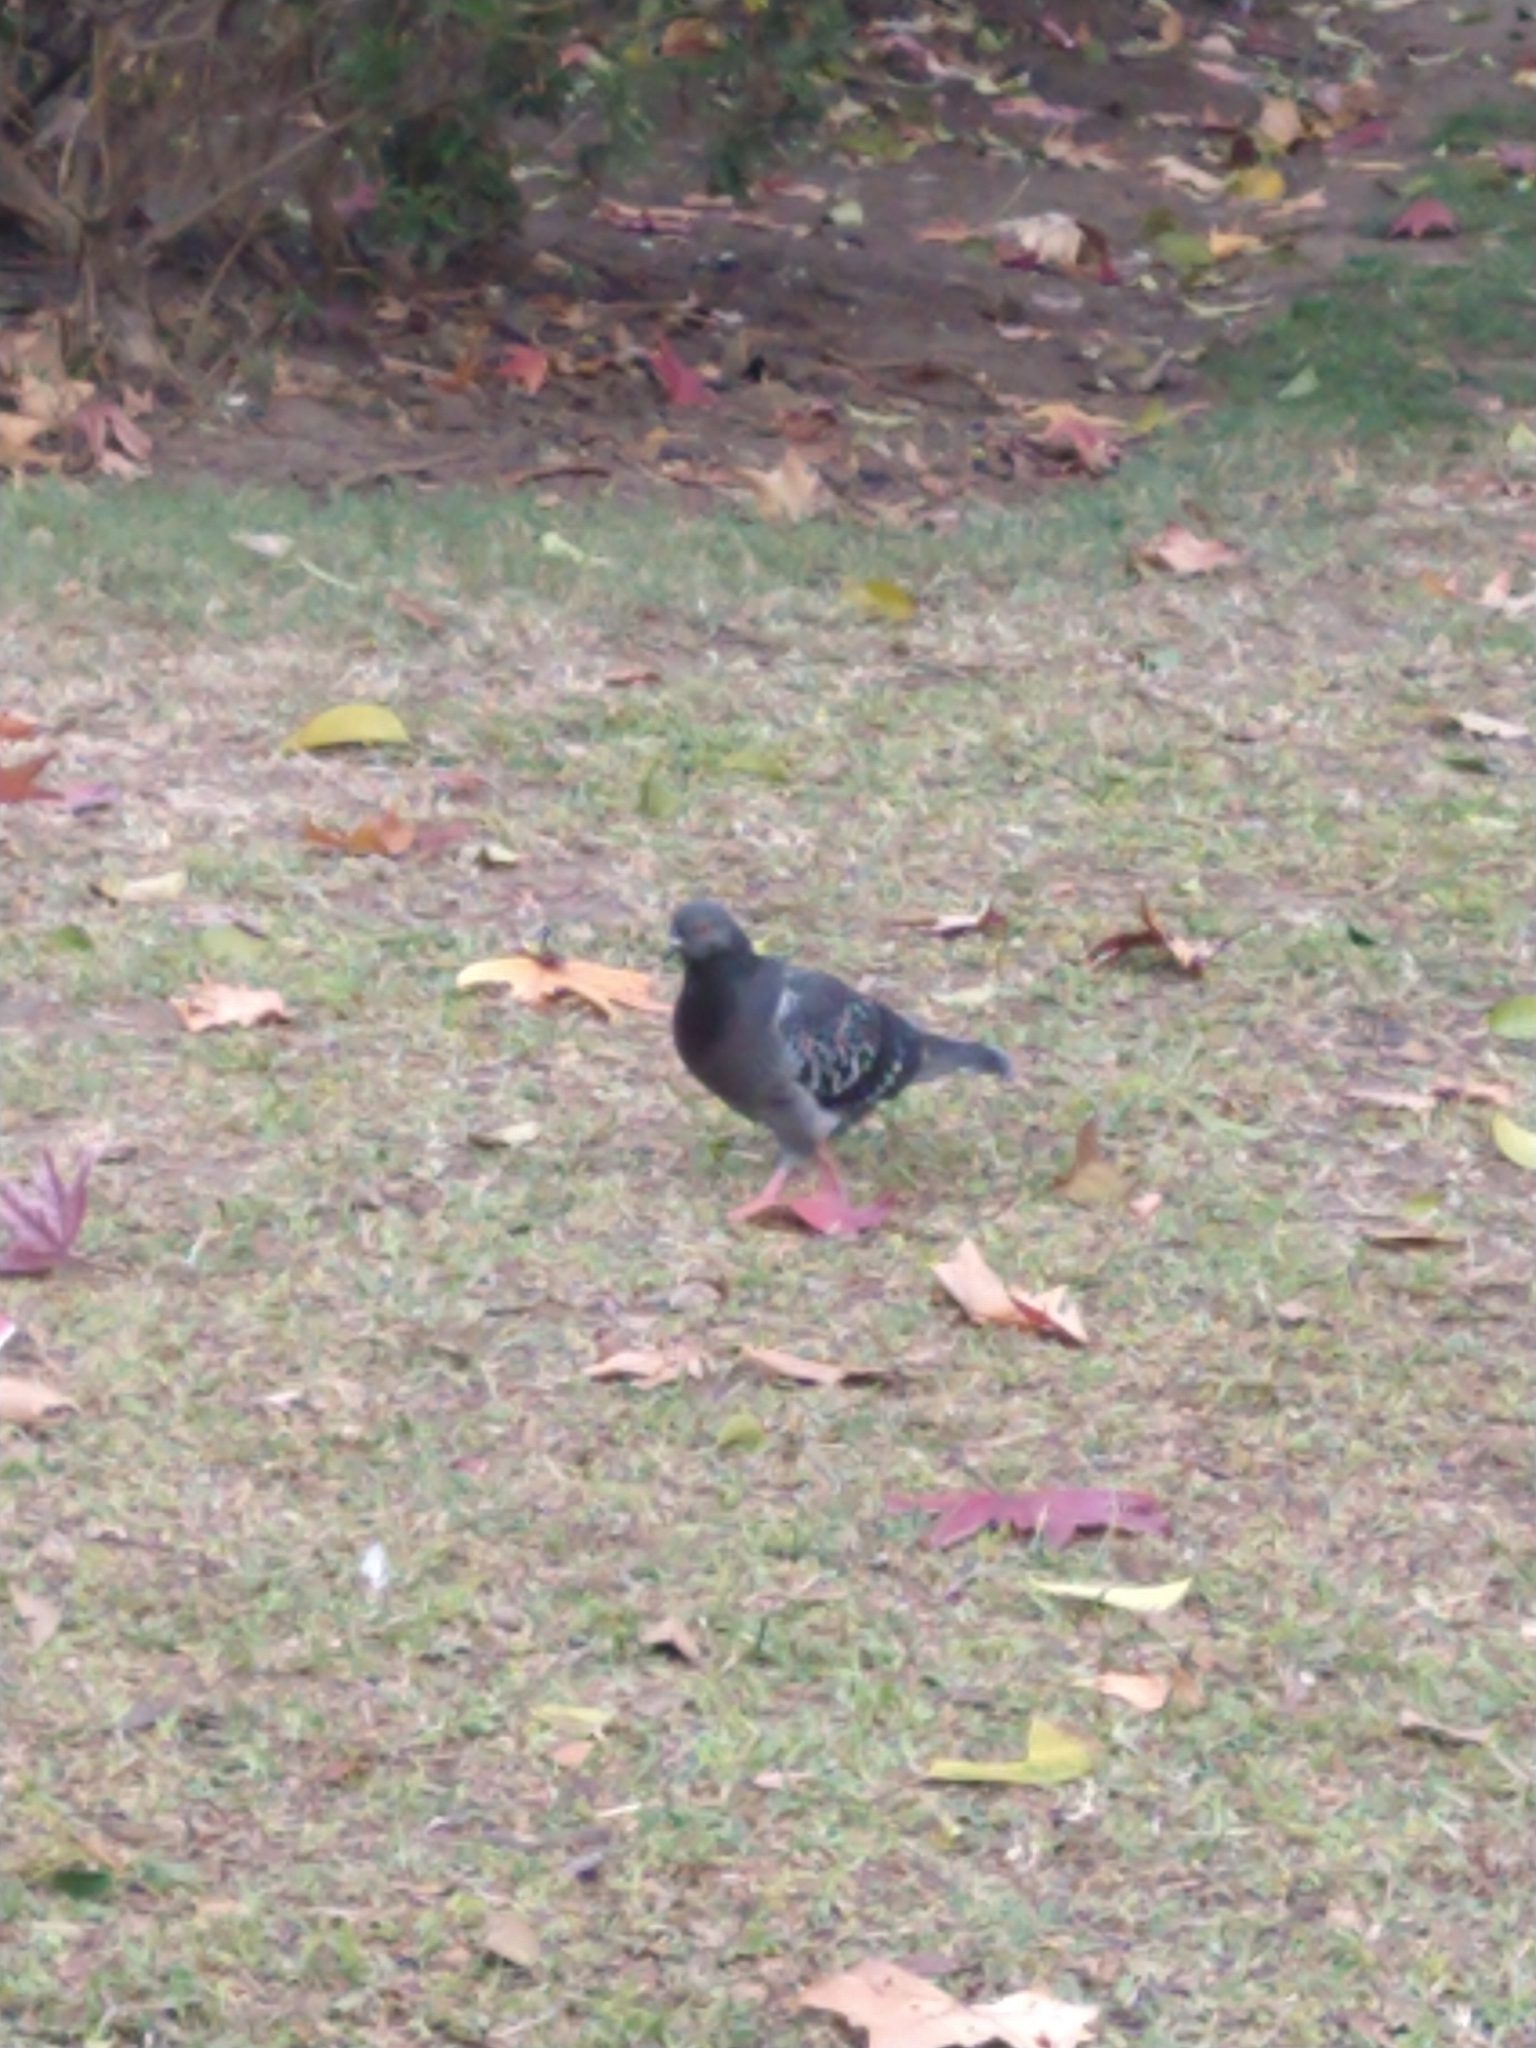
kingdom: Animalia
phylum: Chordata
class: Aves
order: Columbiformes
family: Columbidae
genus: Columba
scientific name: Columba livia
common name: Rock pigeon
